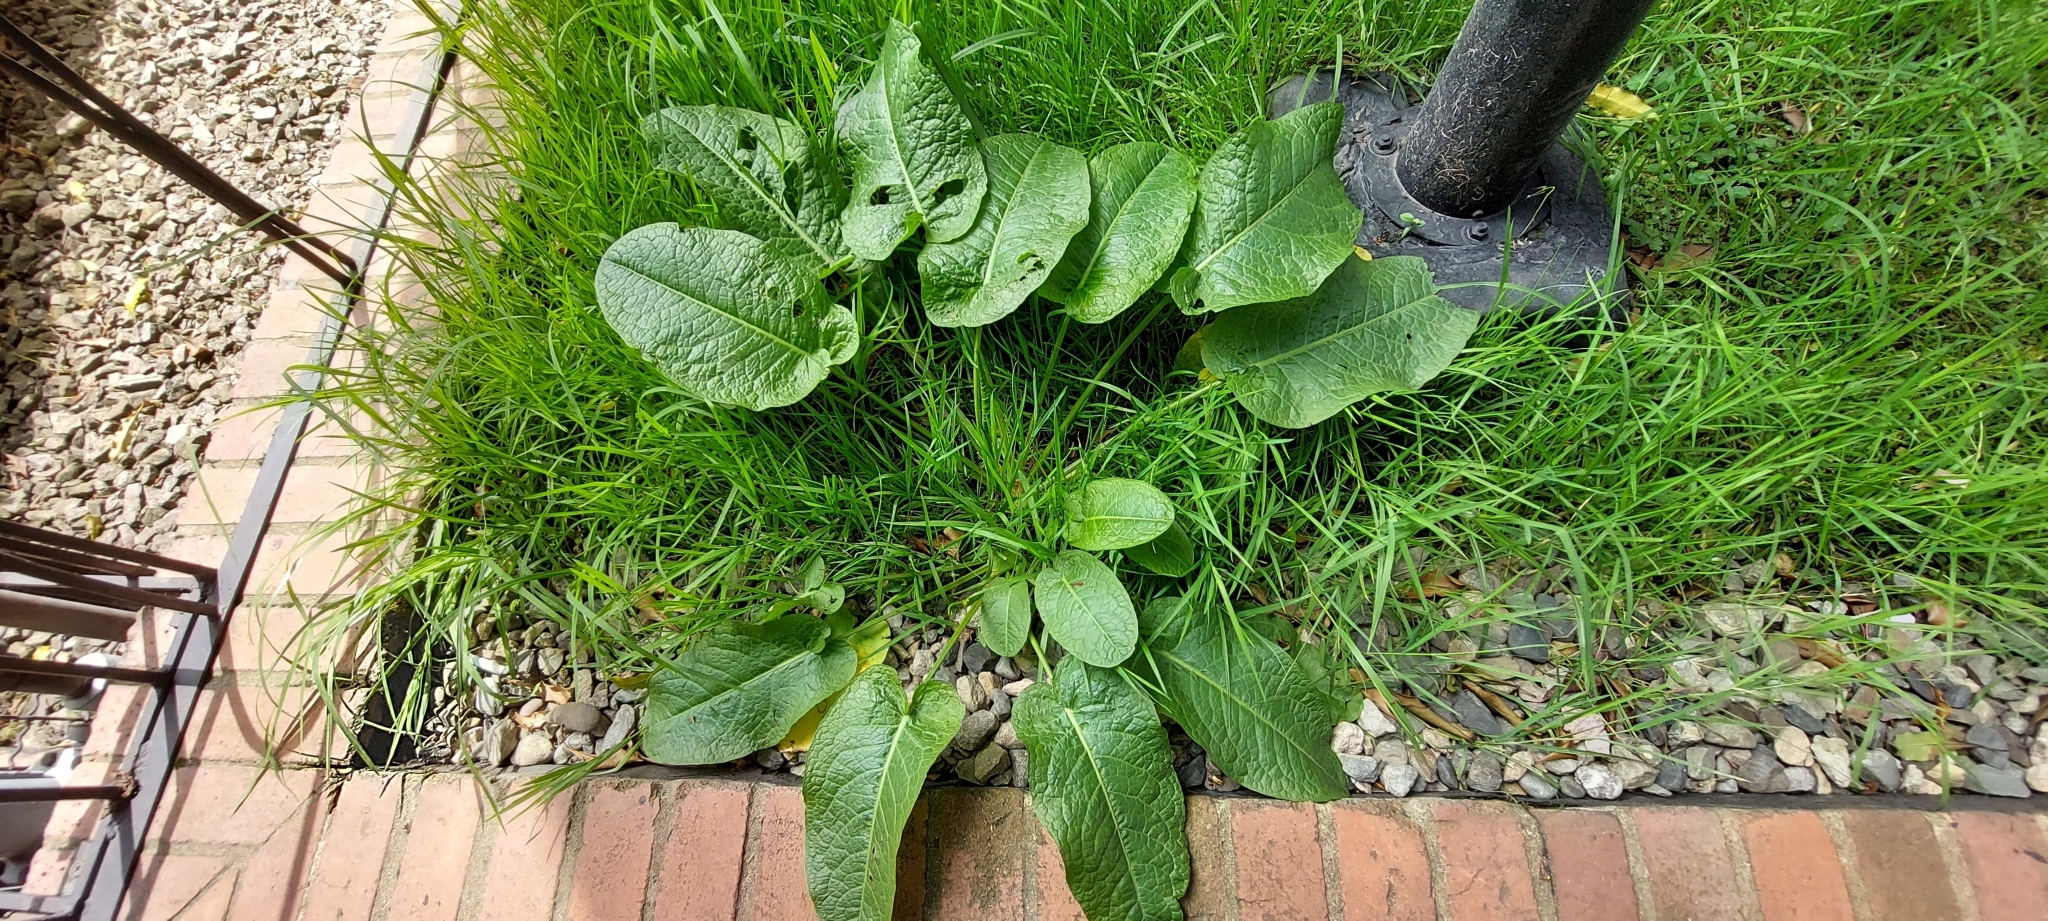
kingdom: Plantae
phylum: Tracheophyta
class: Magnoliopsida
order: Caryophyllales
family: Polygonaceae
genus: Rumex
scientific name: Rumex obtusifolius
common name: Bitter dock
